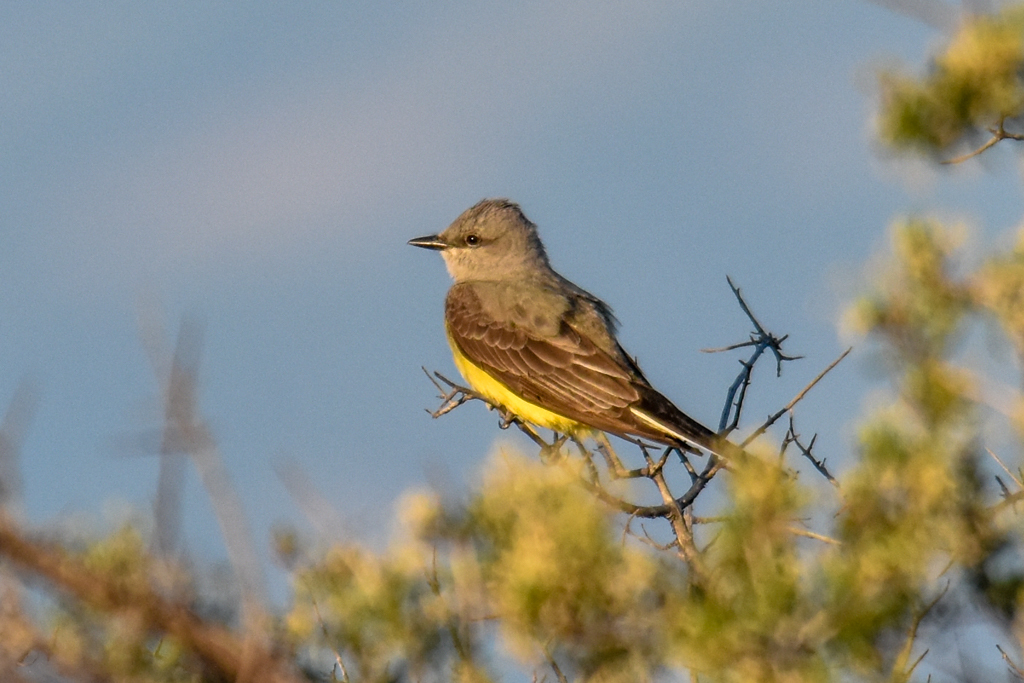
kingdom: Animalia
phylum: Chordata
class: Aves
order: Passeriformes
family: Tyrannidae
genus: Tyrannus
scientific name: Tyrannus verticalis
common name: Western kingbird
